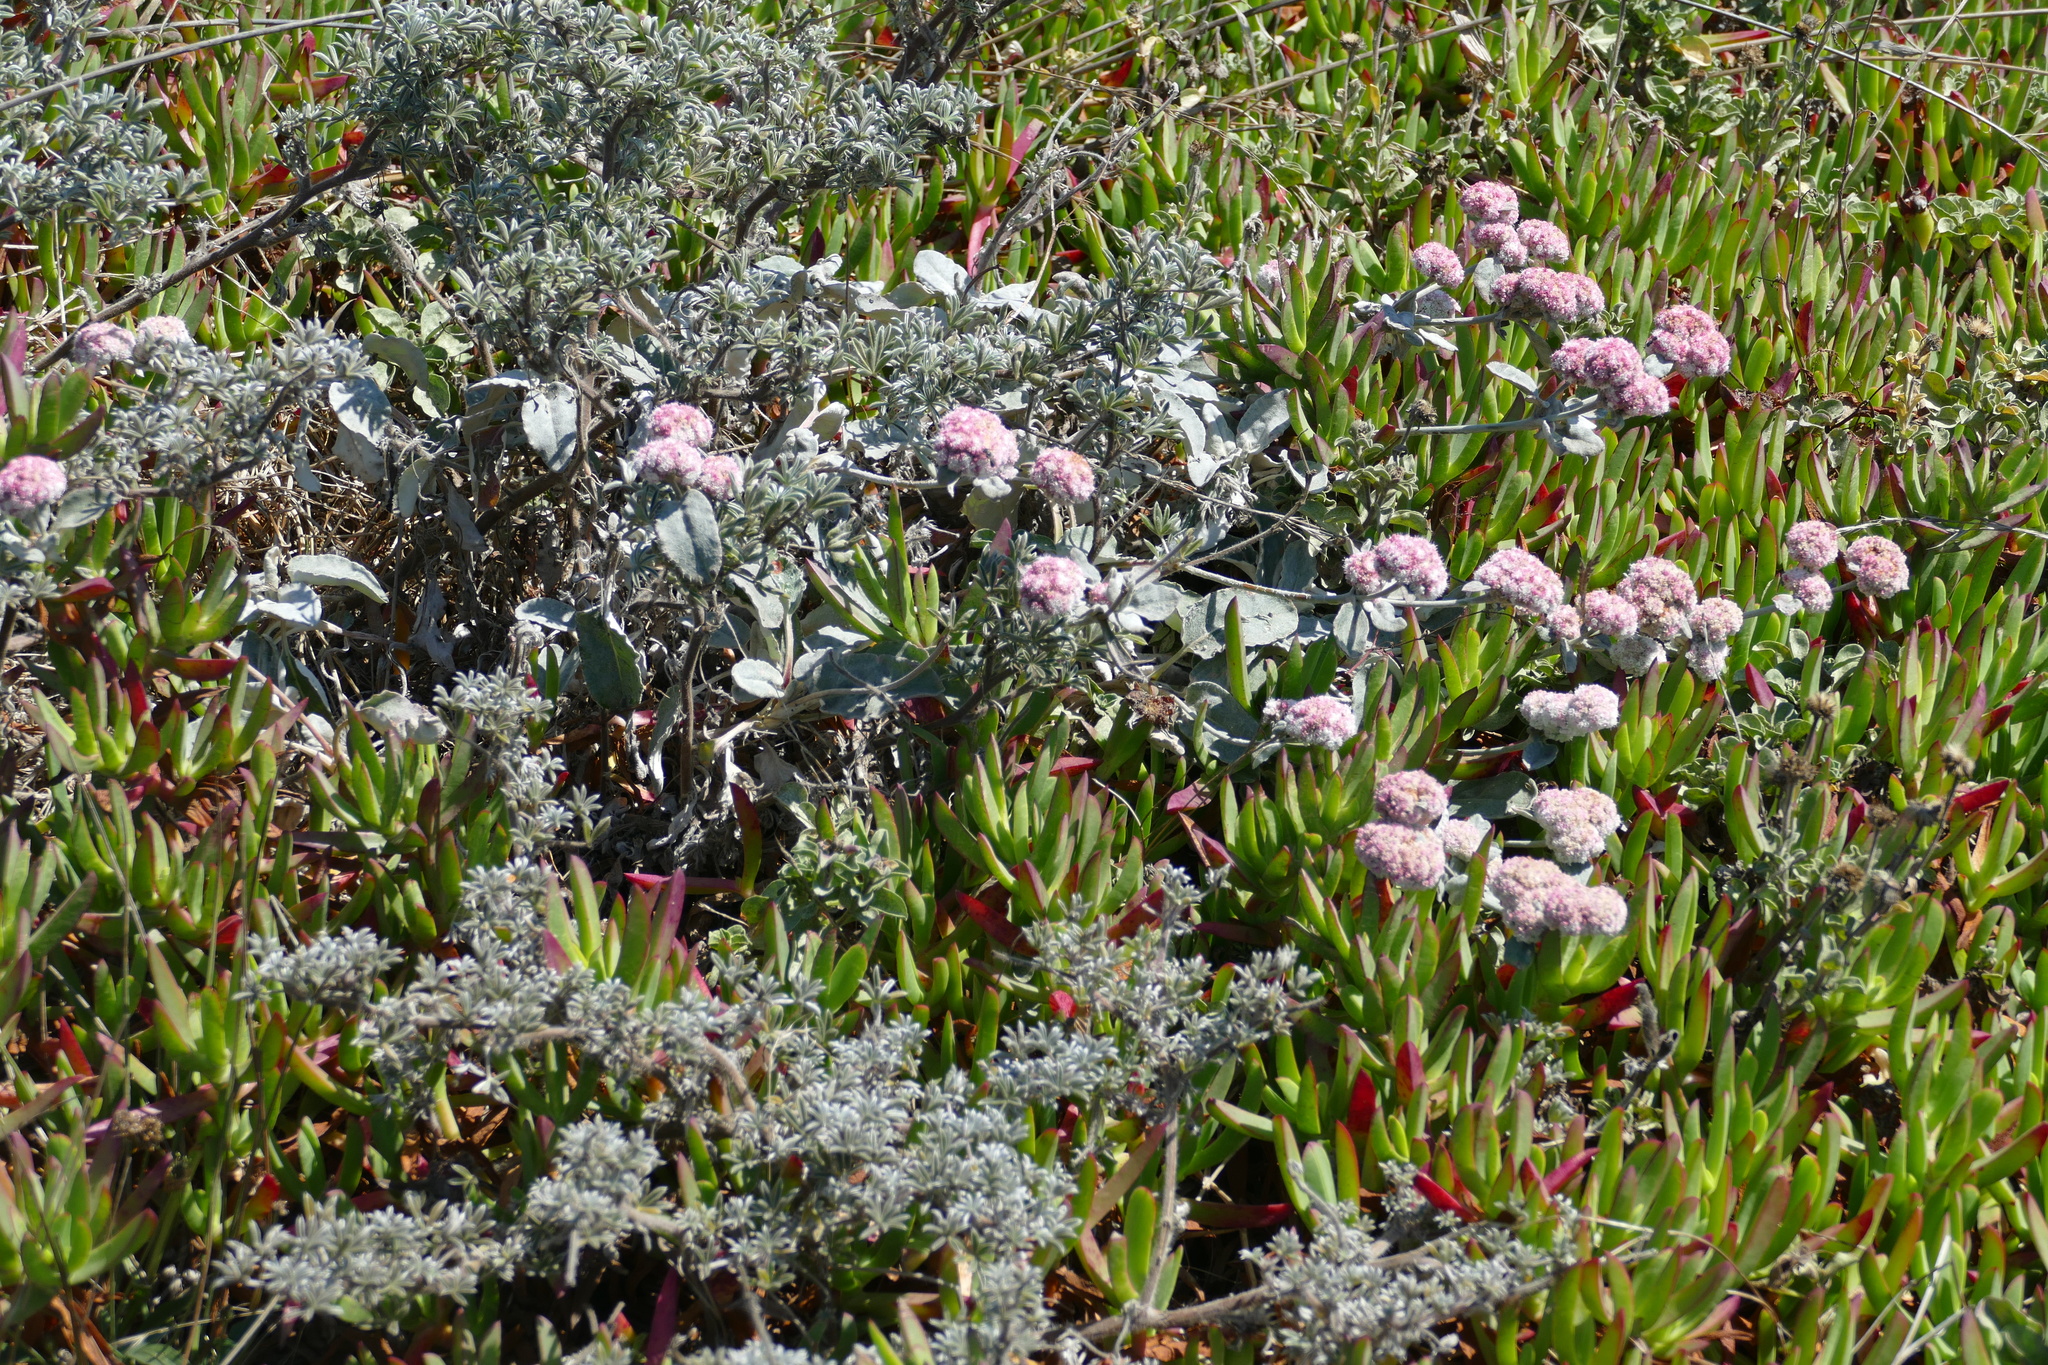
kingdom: Plantae
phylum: Tracheophyta
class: Magnoliopsida
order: Caryophyllales
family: Polygonaceae
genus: Eriogonum
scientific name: Eriogonum latifolium
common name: Seaside wild buckwheat
